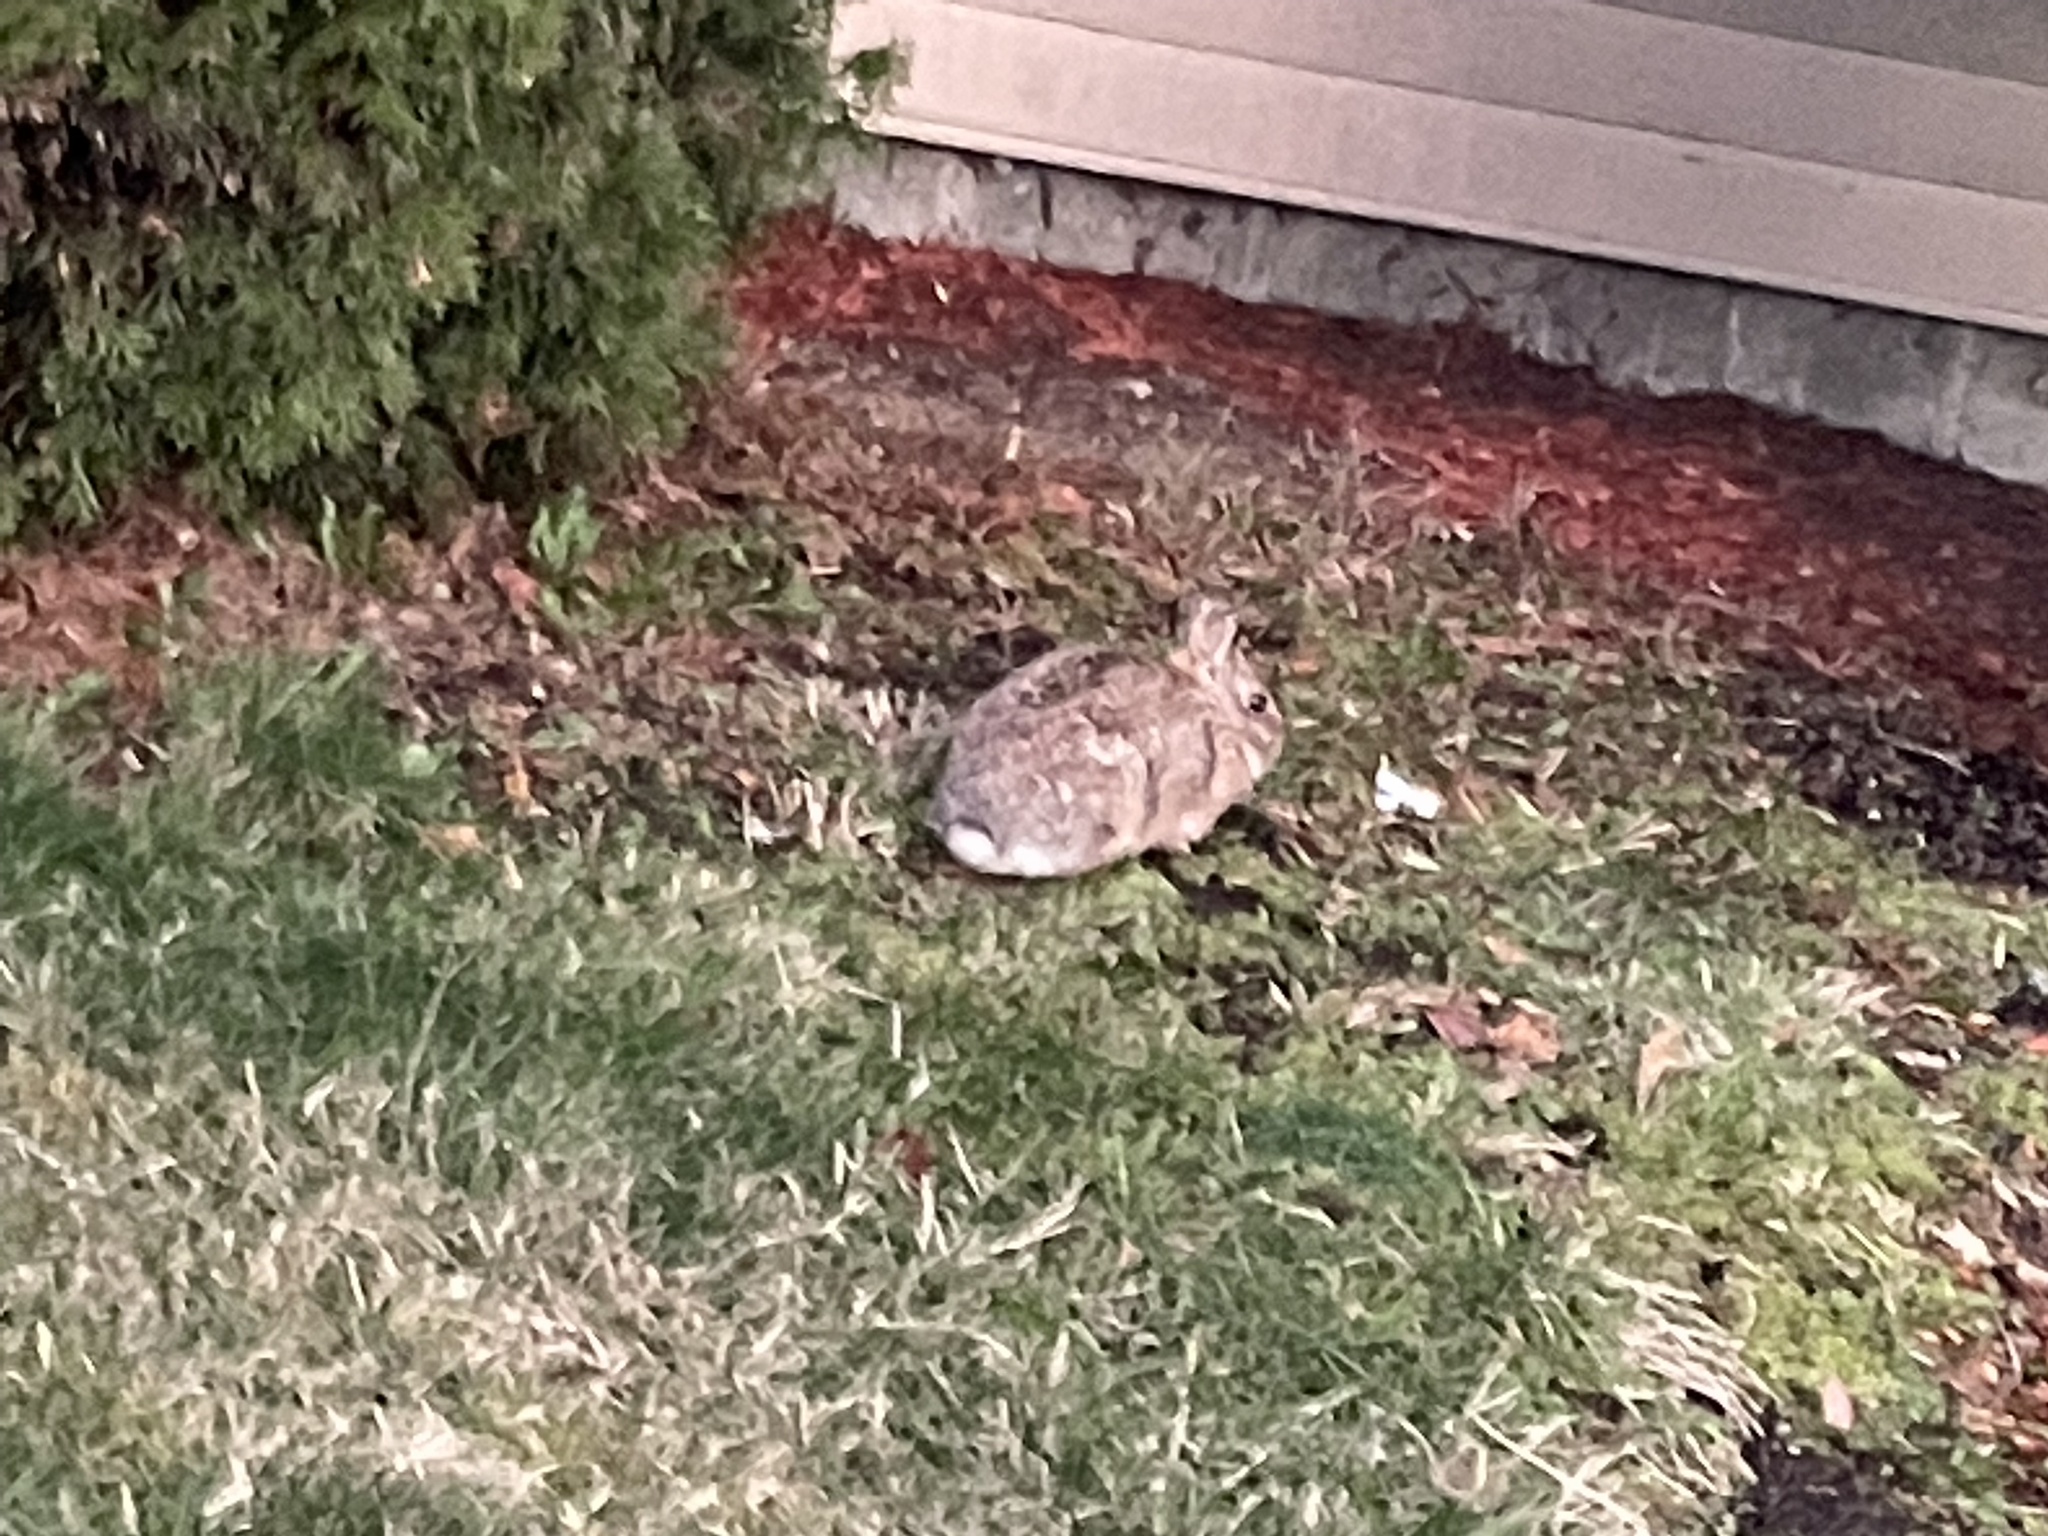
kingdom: Animalia
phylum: Chordata
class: Mammalia
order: Lagomorpha
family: Leporidae
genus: Sylvilagus
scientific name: Sylvilagus floridanus
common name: Eastern cottontail
